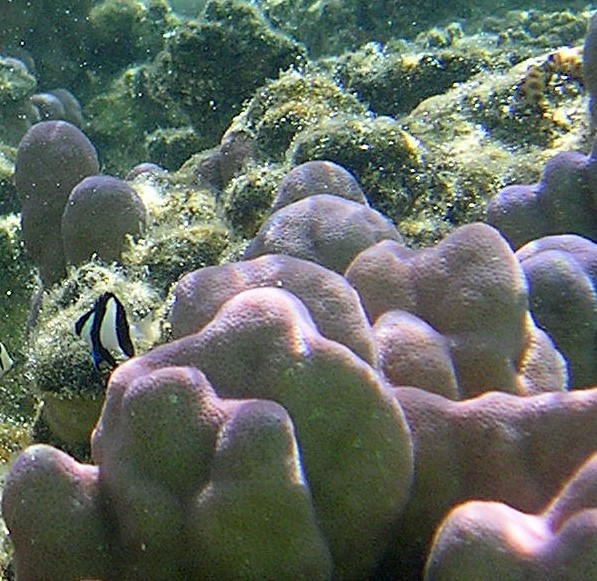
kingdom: Animalia
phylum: Chordata
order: Perciformes
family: Pomacentridae
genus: Dascyllus
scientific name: Dascyllus aruanus
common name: Humbug dascyllus
